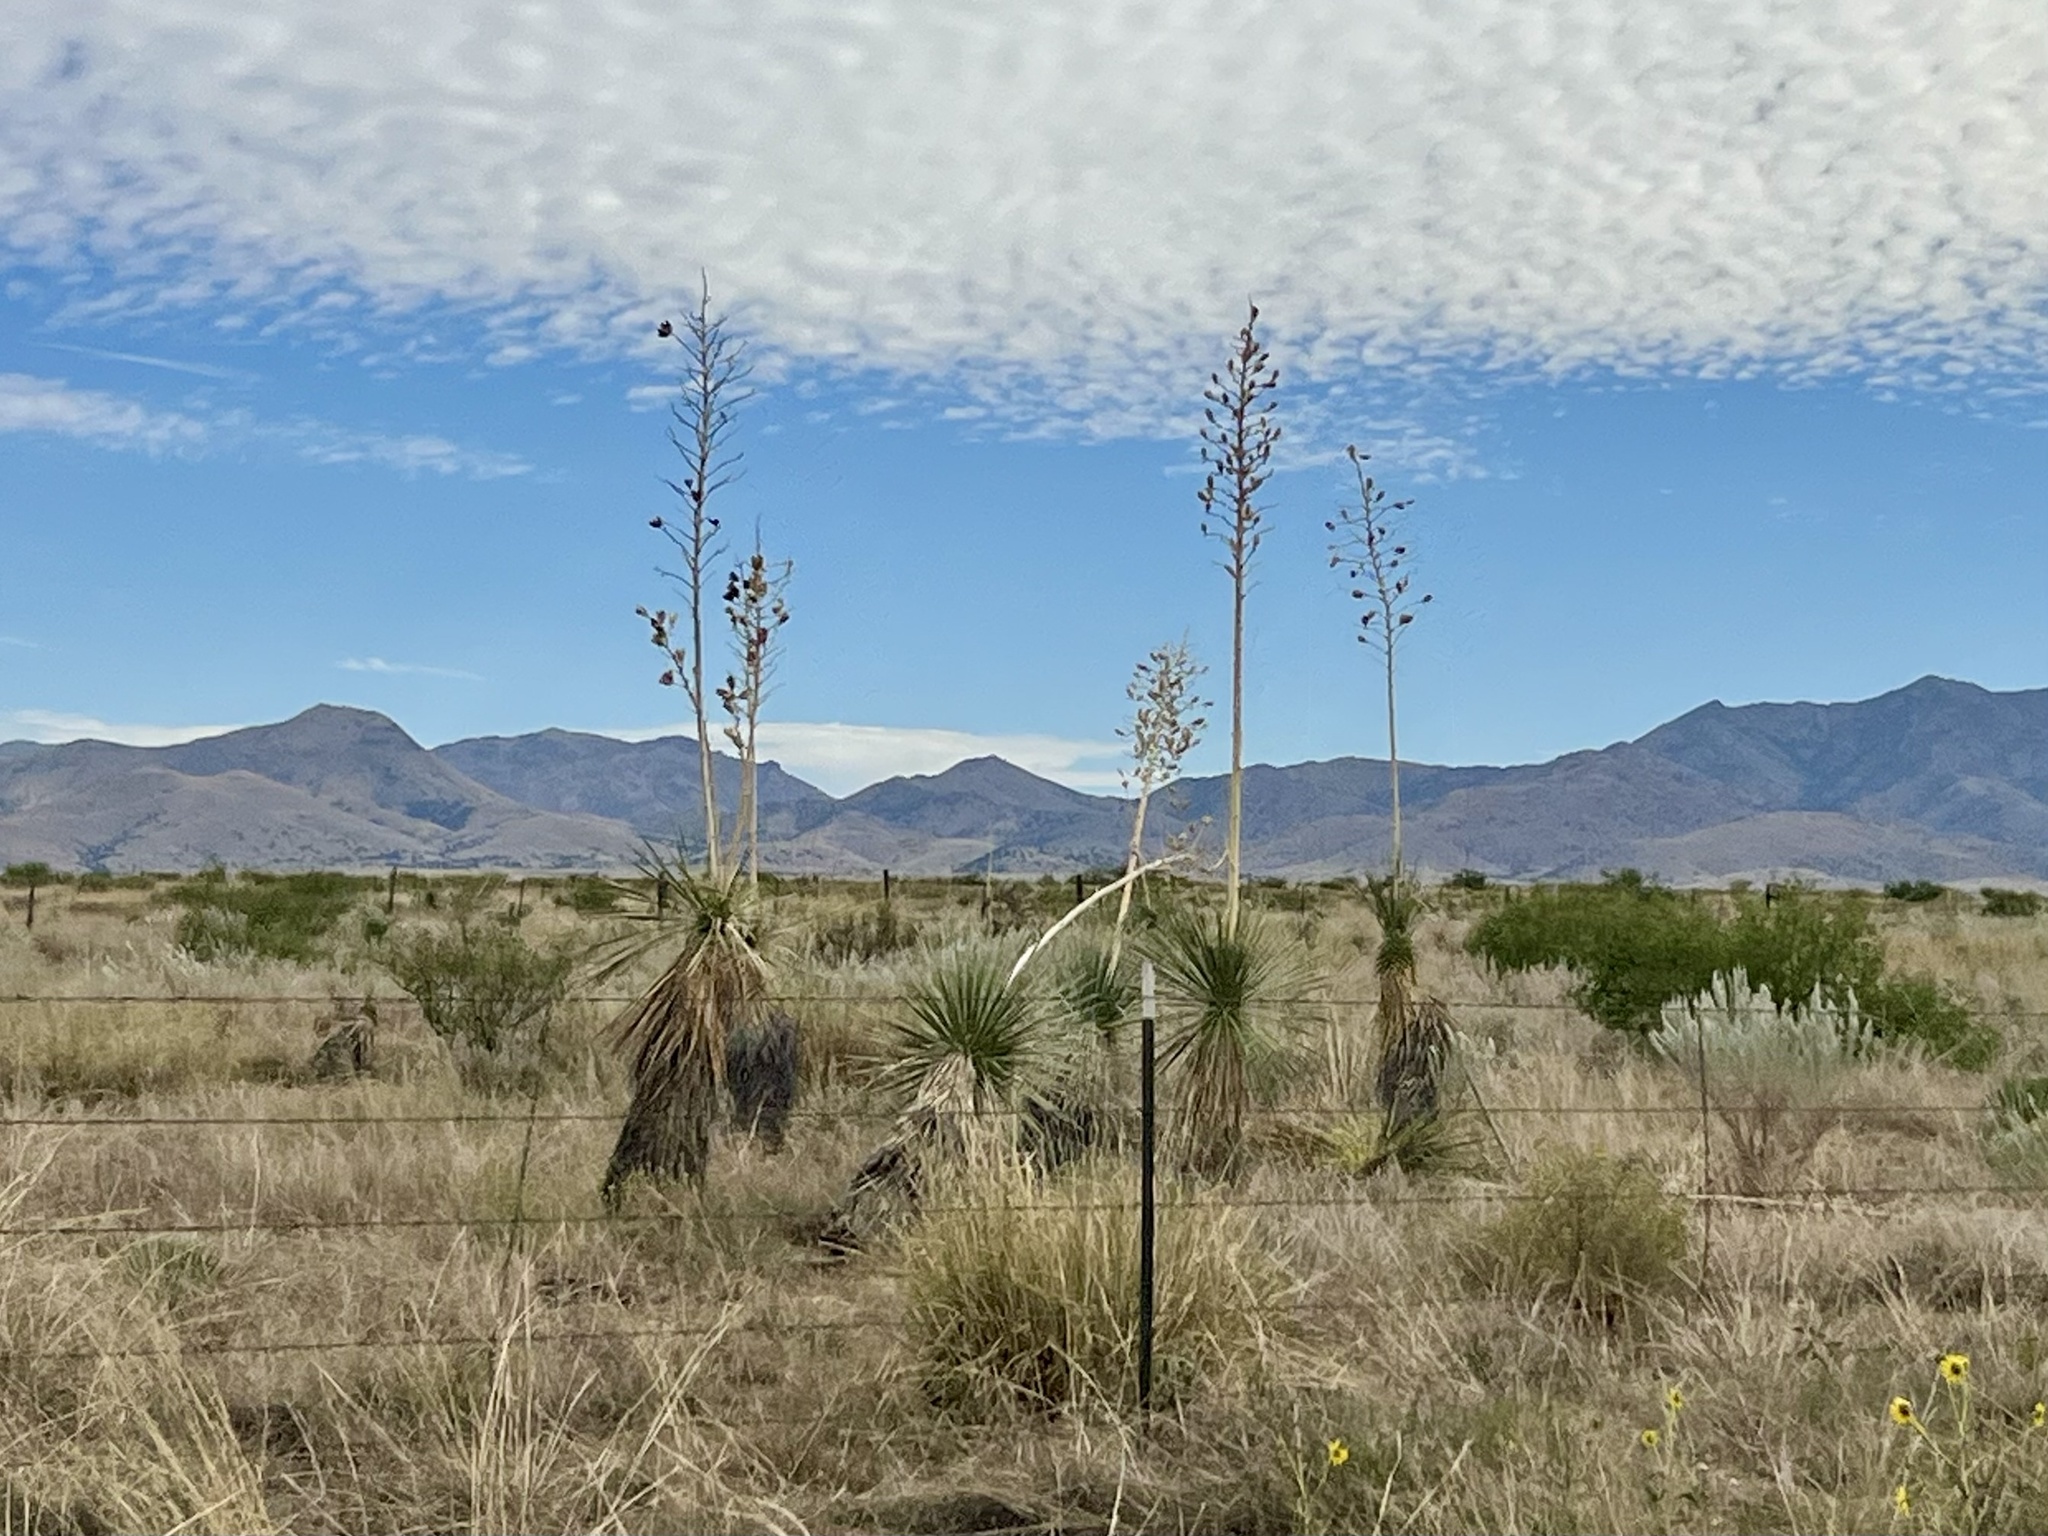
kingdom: Plantae
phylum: Tracheophyta
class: Liliopsida
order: Asparagales
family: Asparagaceae
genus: Yucca
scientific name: Yucca elata
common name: Palmella
